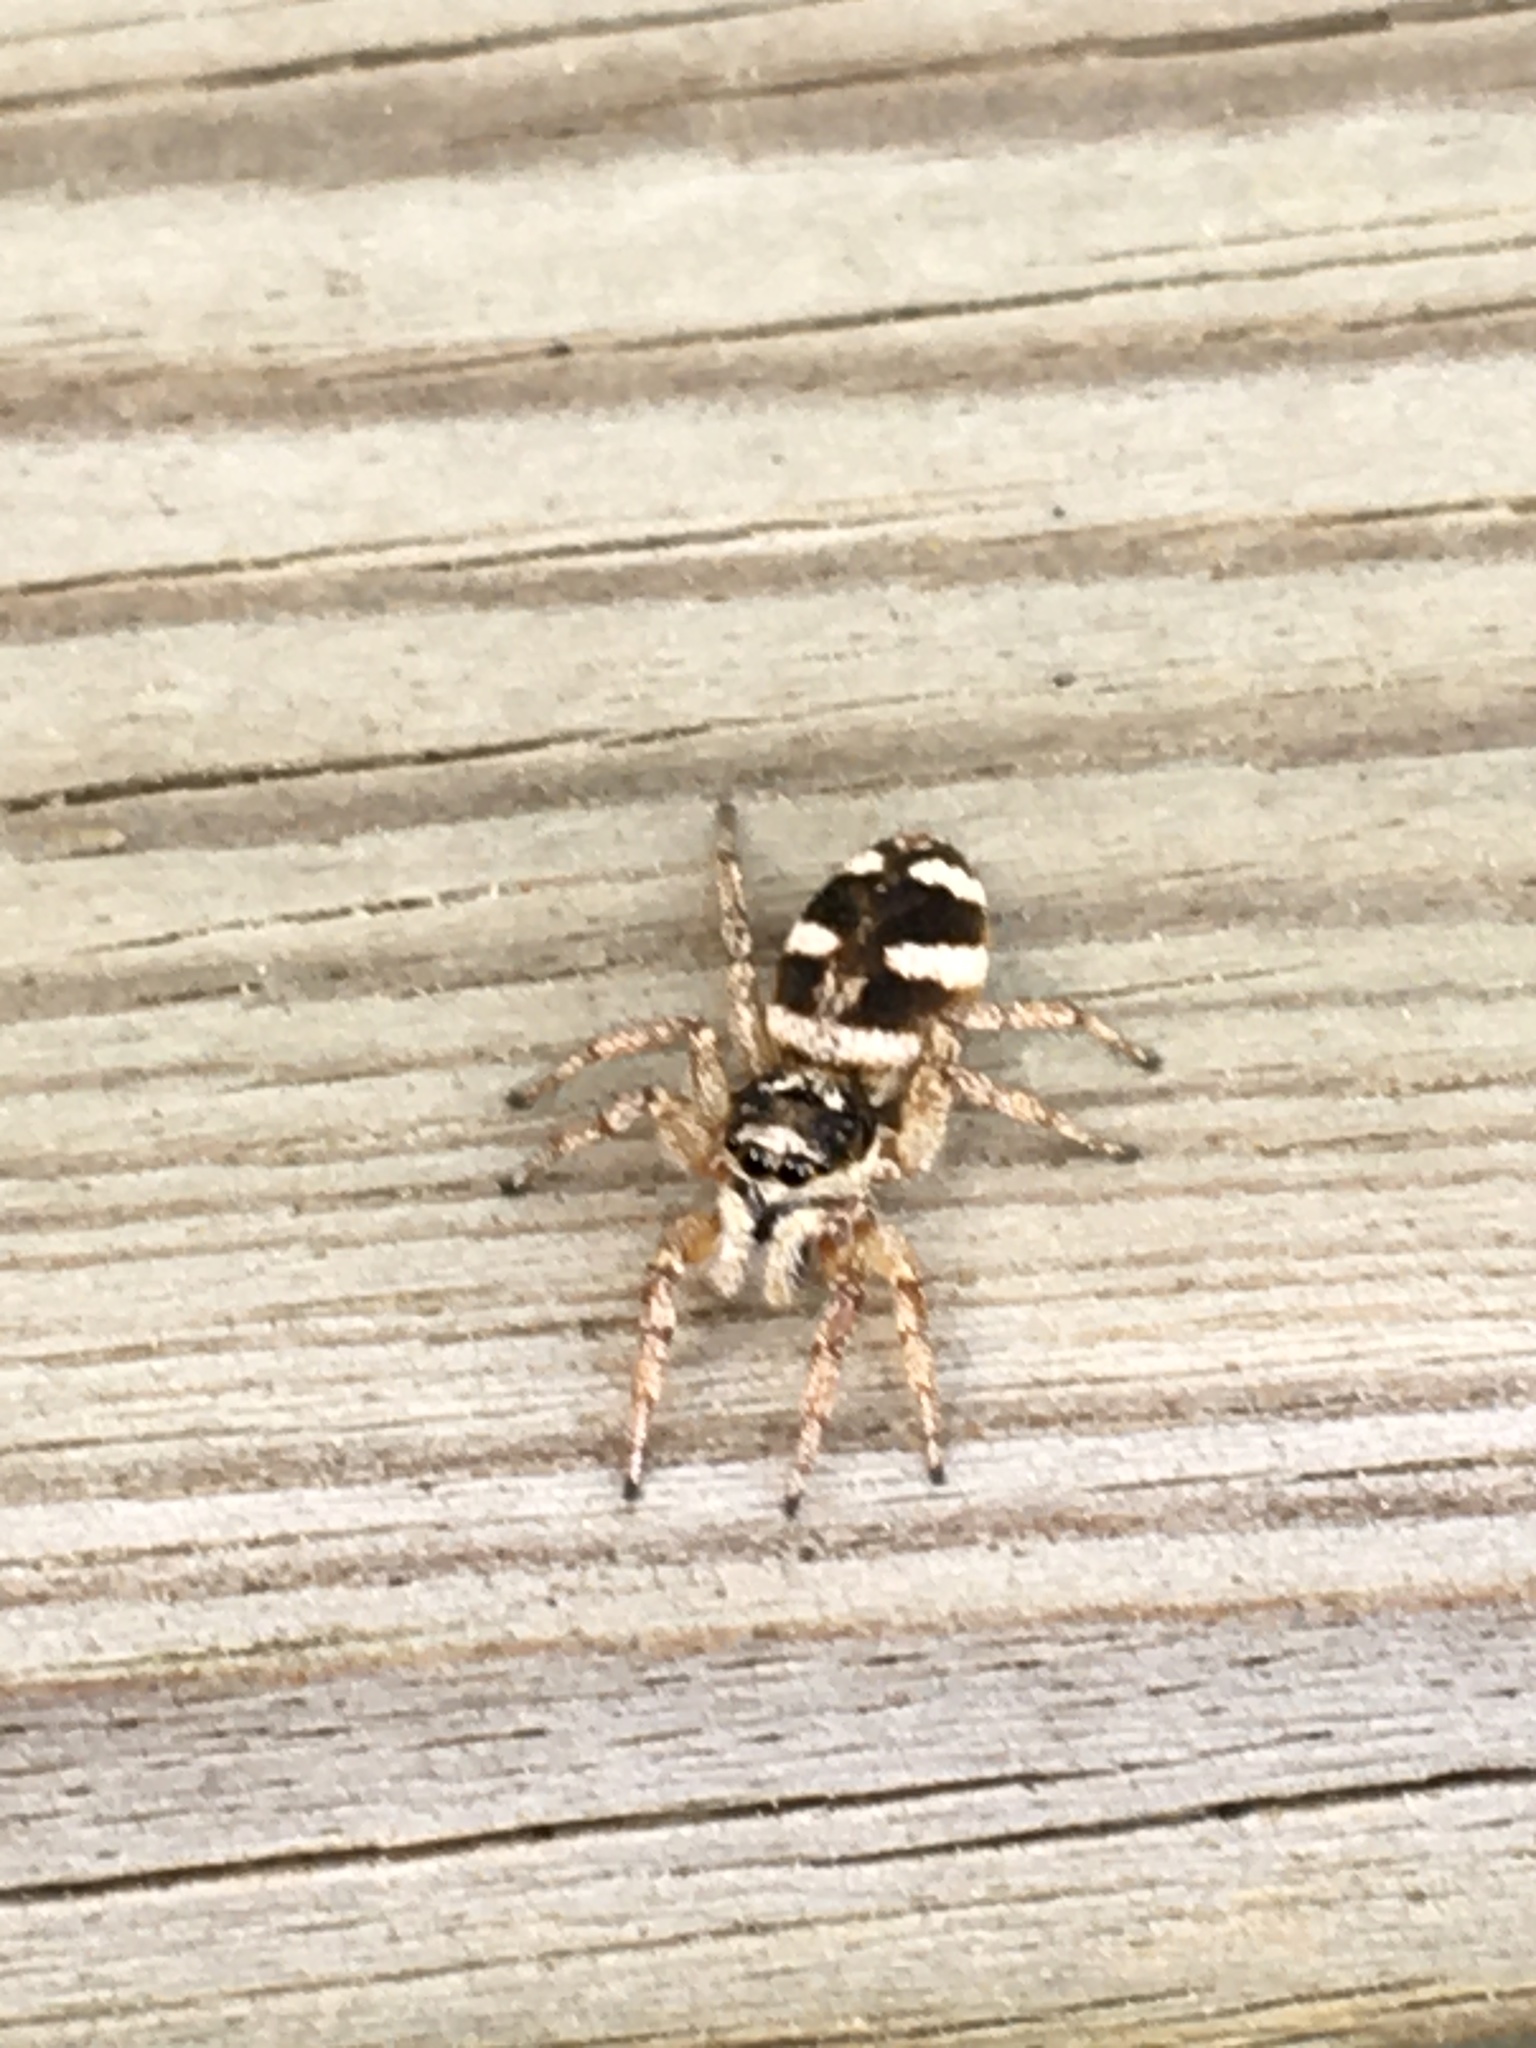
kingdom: Animalia
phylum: Arthropoda
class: Arachnida
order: Araneae
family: Salticidae
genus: Salticus
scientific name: Salticus scenicus
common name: Zebra jumper
